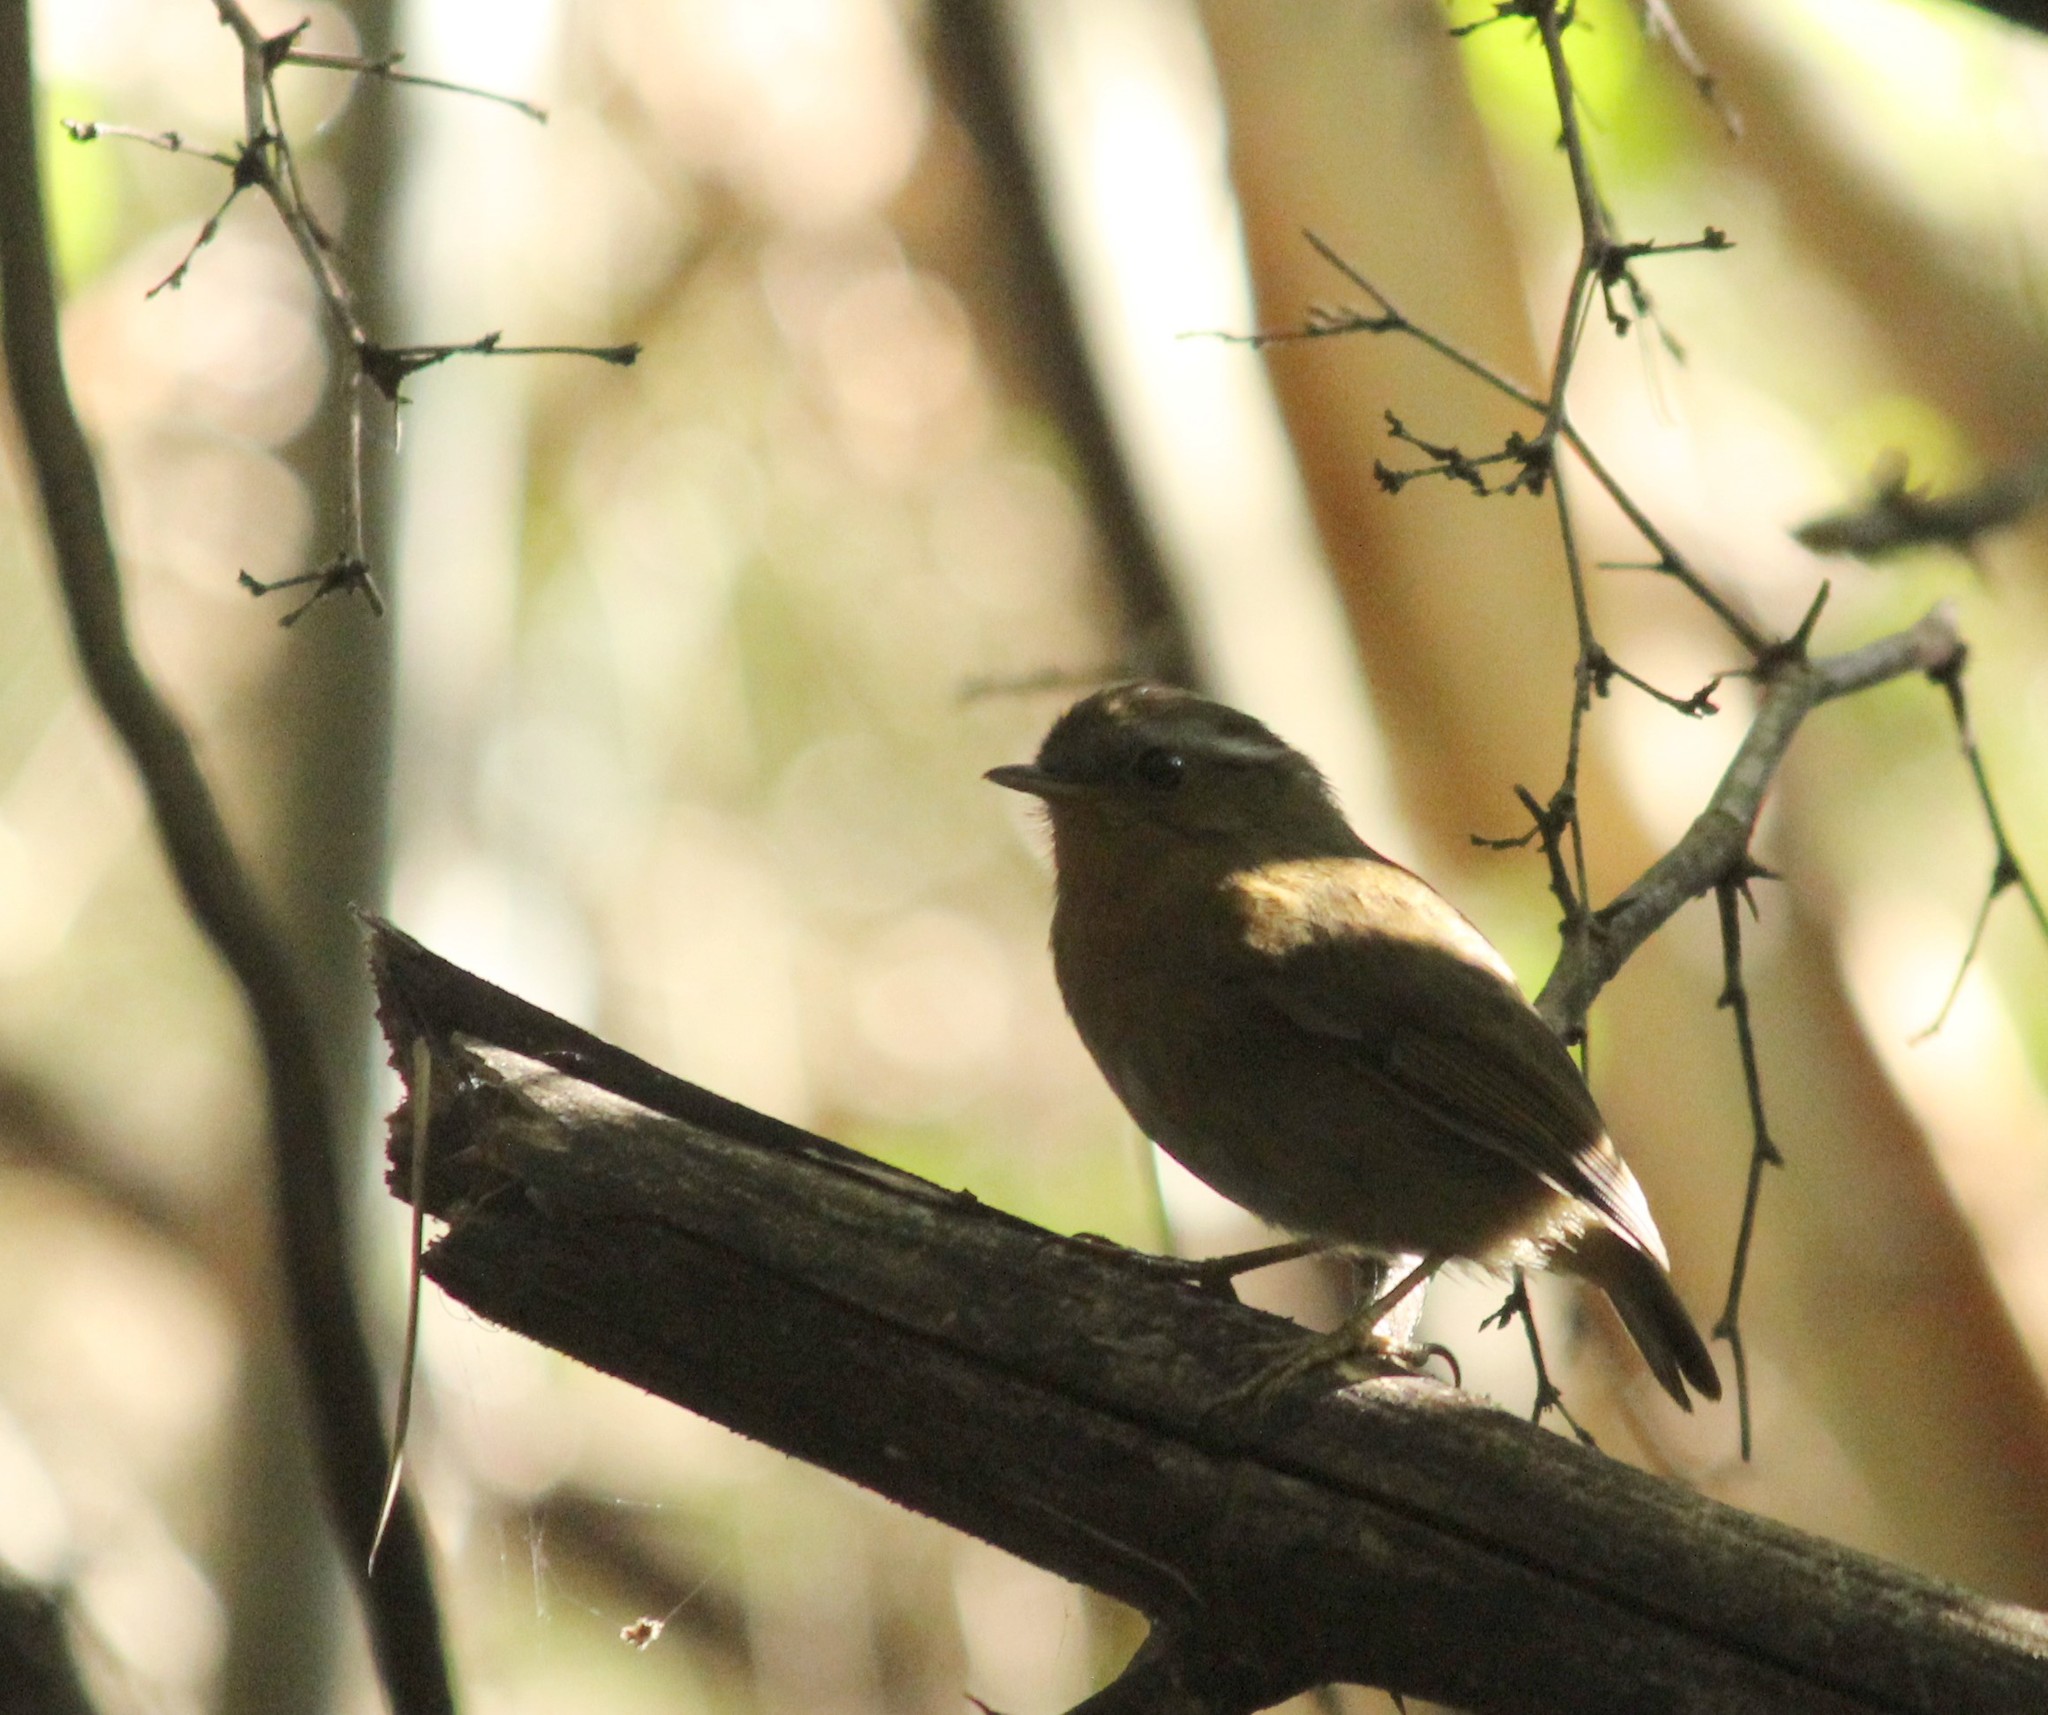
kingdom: Animalia
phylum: Chordata
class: Aves
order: Passeriformes
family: Conopophagidae
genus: Conopophaga
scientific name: Conopophaga lineata
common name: Rufous gnateater
